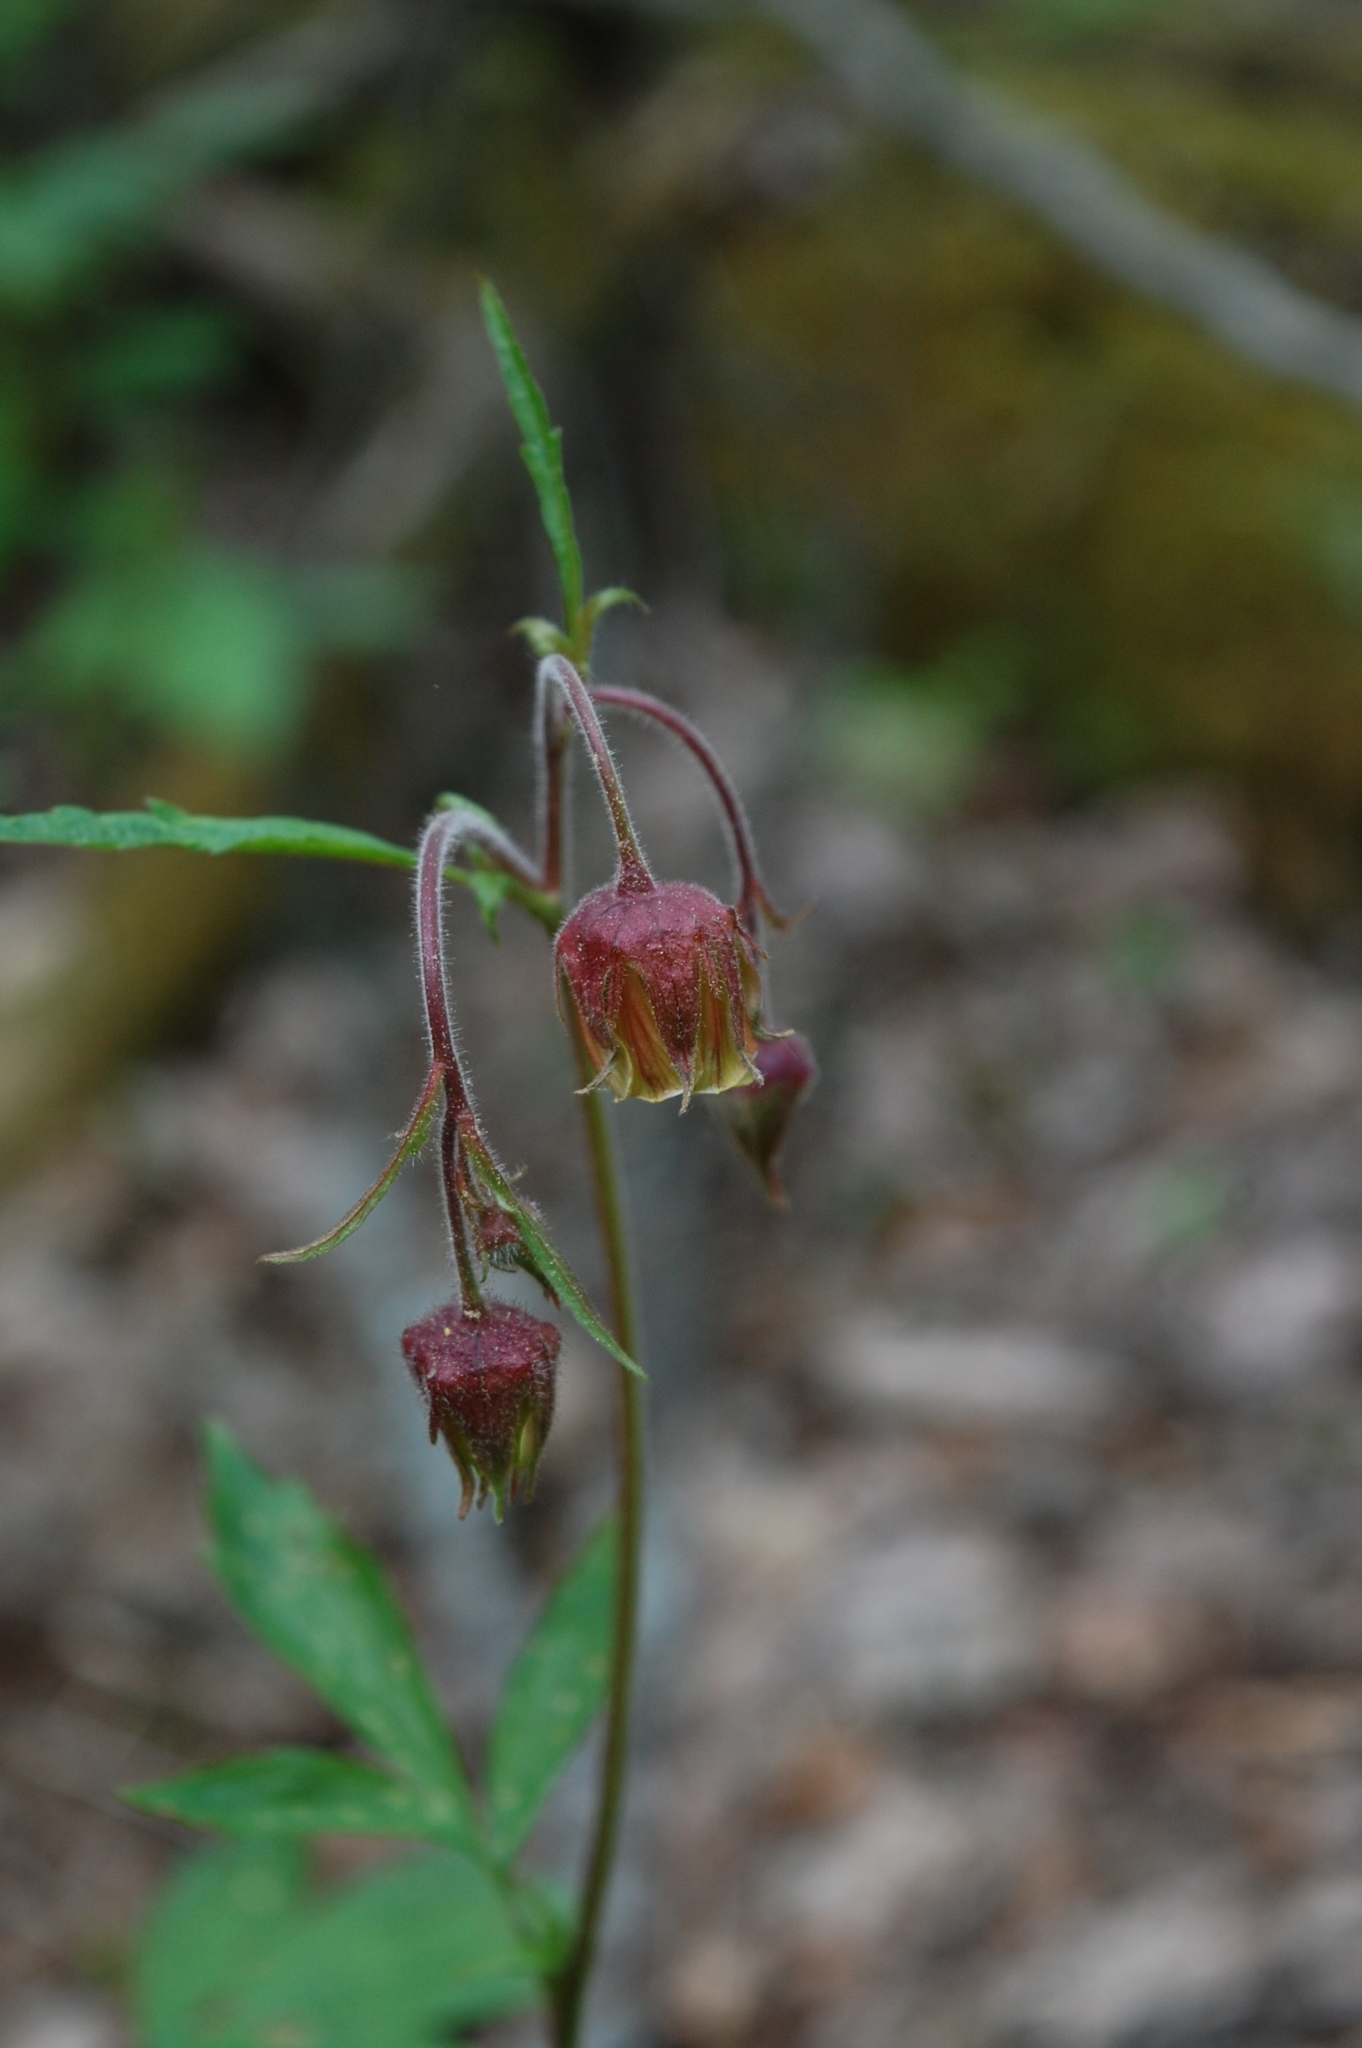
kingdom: Plantae
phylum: Tracheophyta
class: Magnoliopsida
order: Rosales
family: Rosaceae
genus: Geum
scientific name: Geum rivale
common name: Water avens
